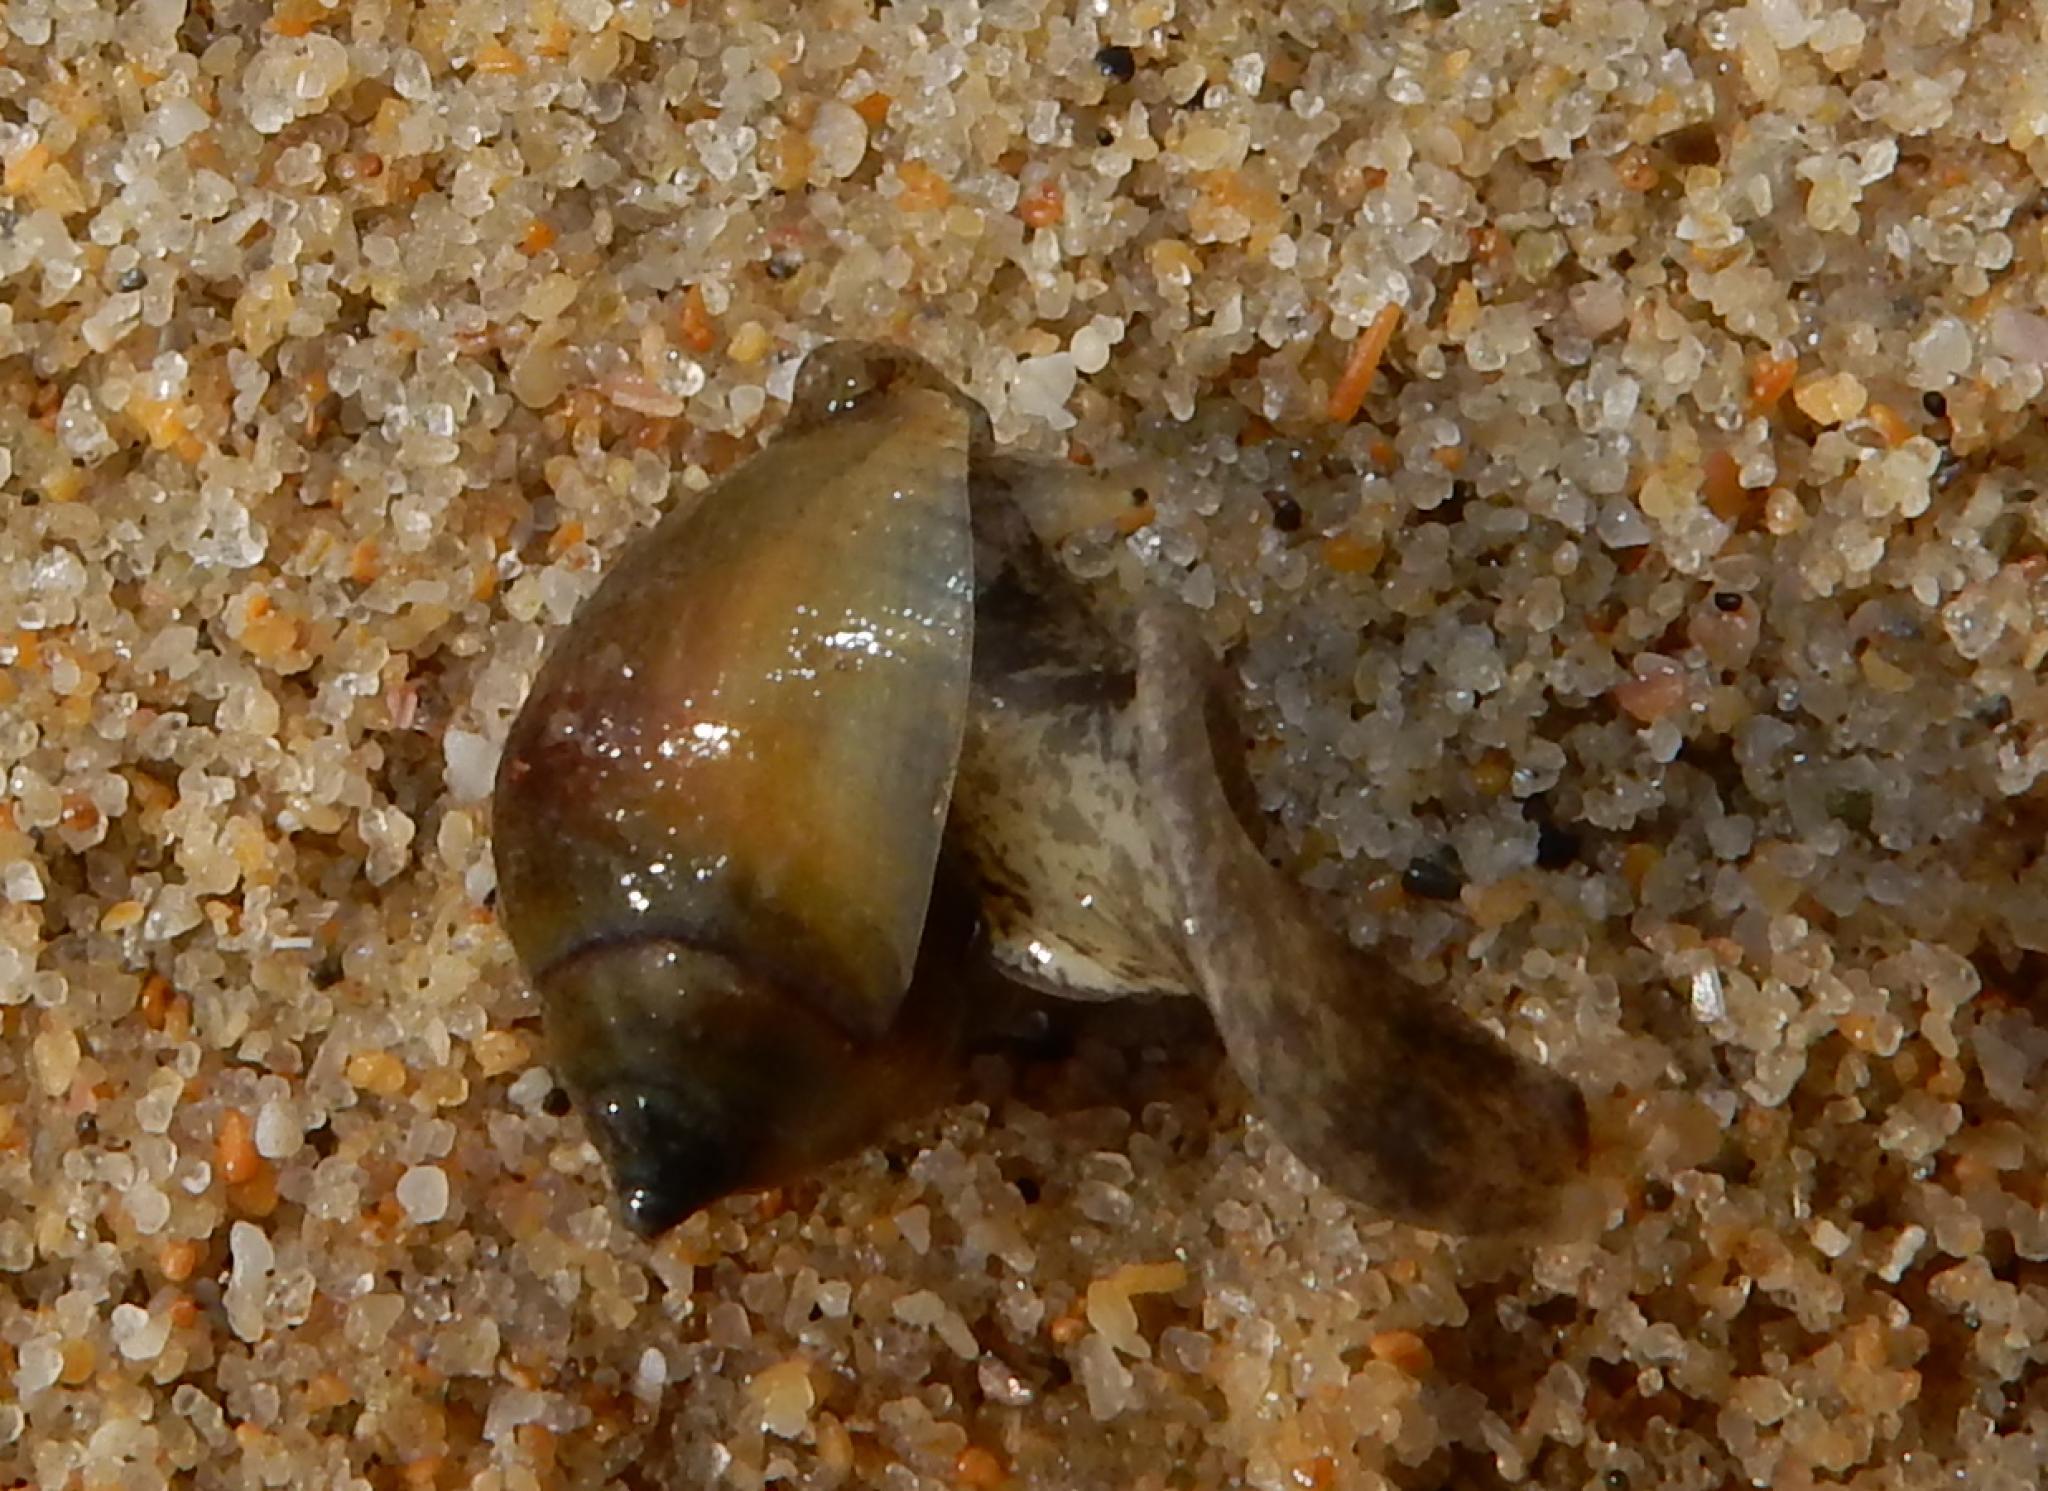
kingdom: Animalia
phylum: Mollusca
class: Gastropoda
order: Neogastropoda
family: Nassariidae
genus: Nassarius
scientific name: Nassarius kraussianus
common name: Tick shell
